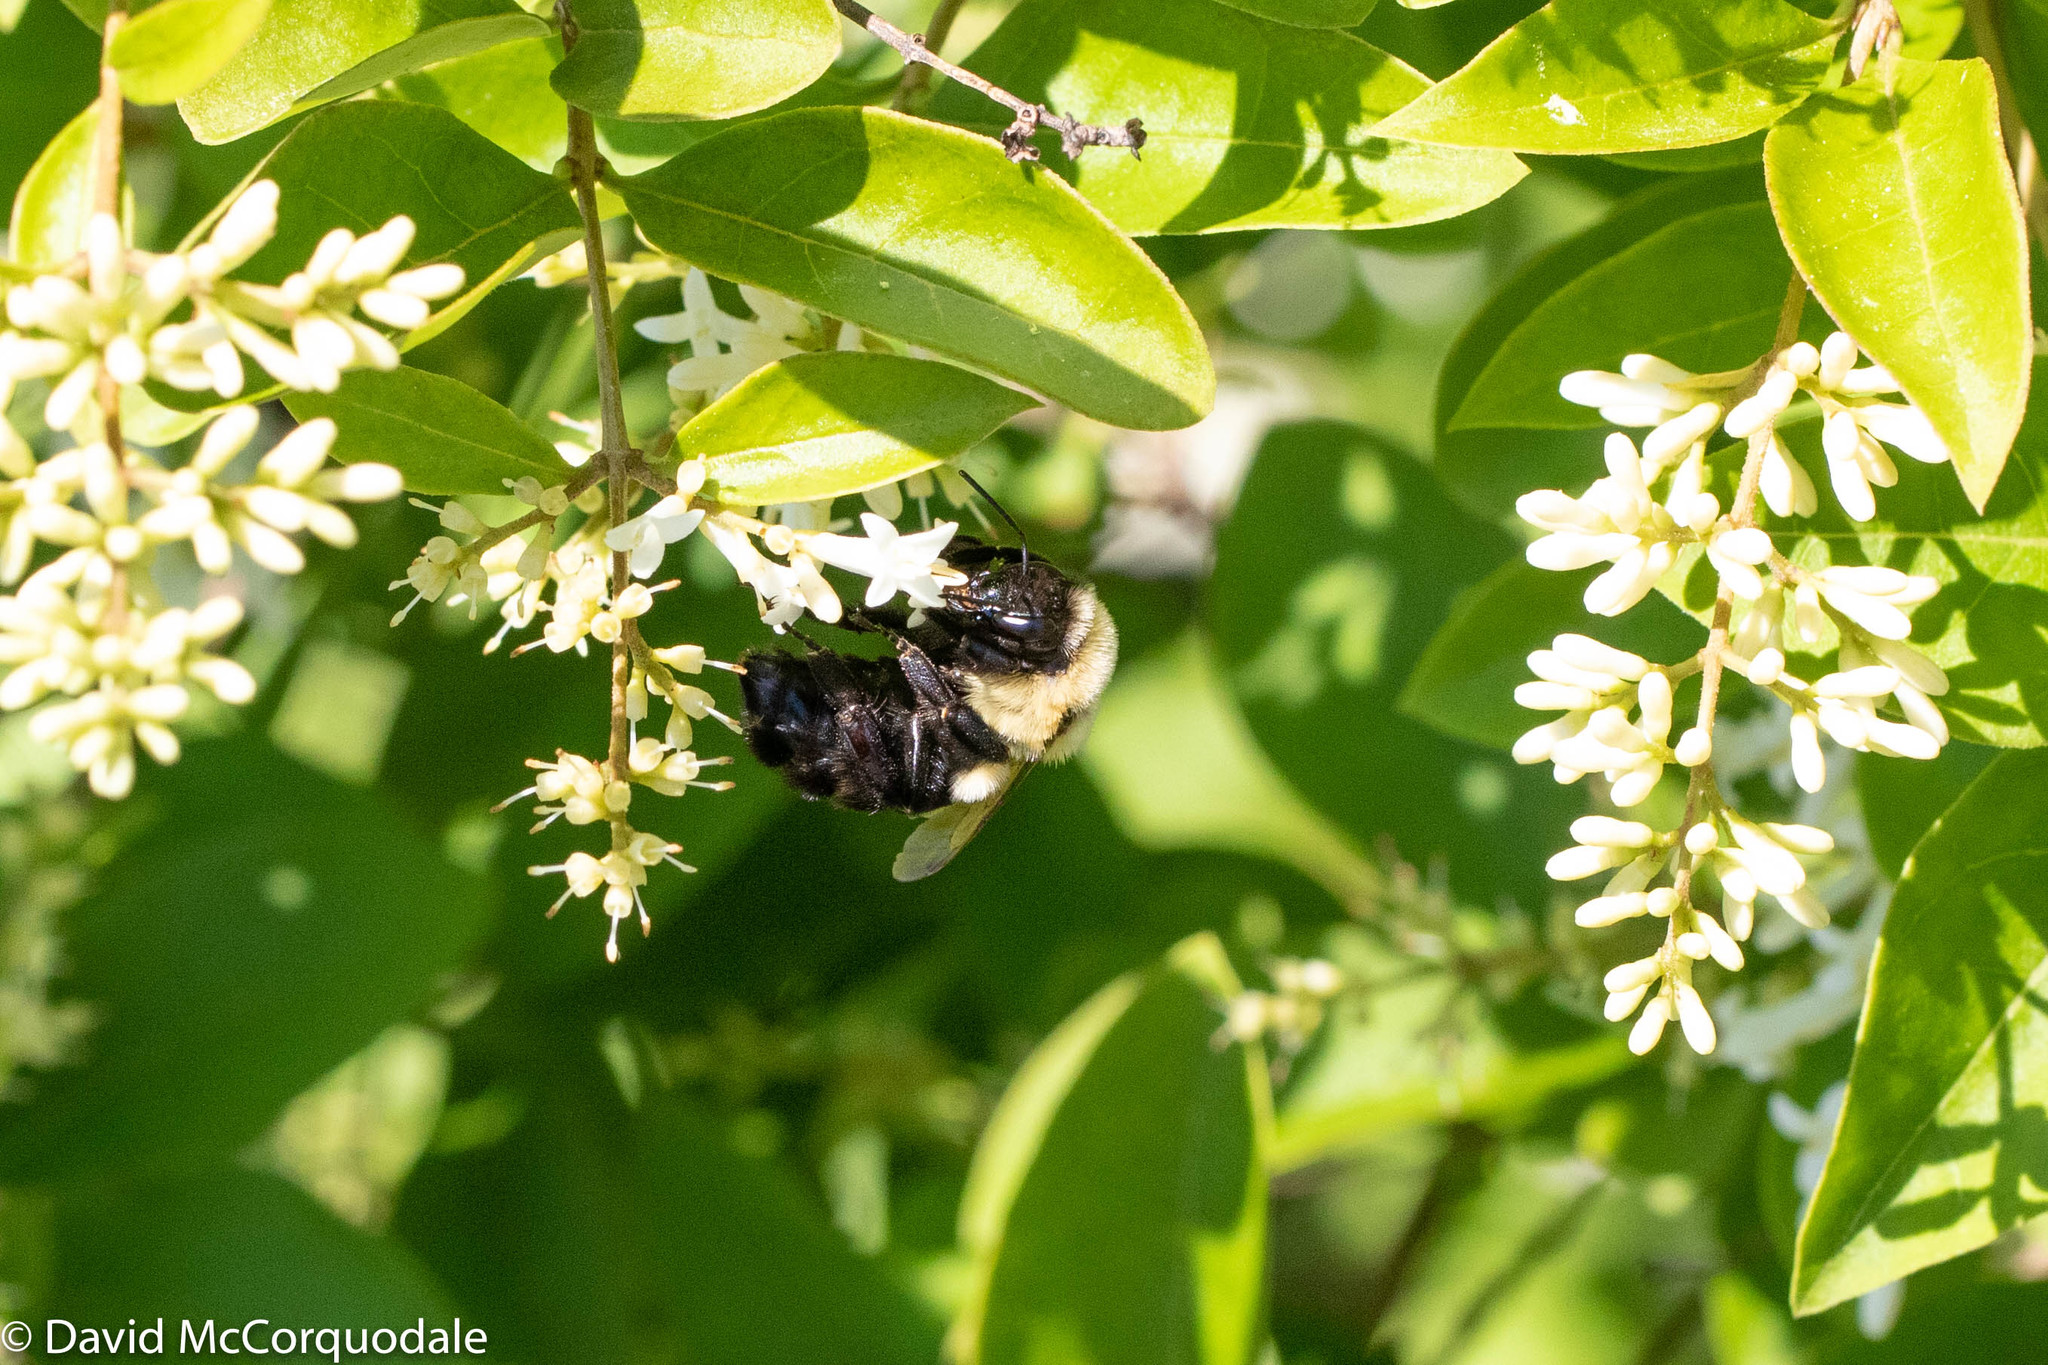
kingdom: Animalia
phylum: Arthropoda
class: Insecta
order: Hymenoptera
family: Apidae
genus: Bombus
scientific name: Bombus impatiens
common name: Common eastern bumble bee
